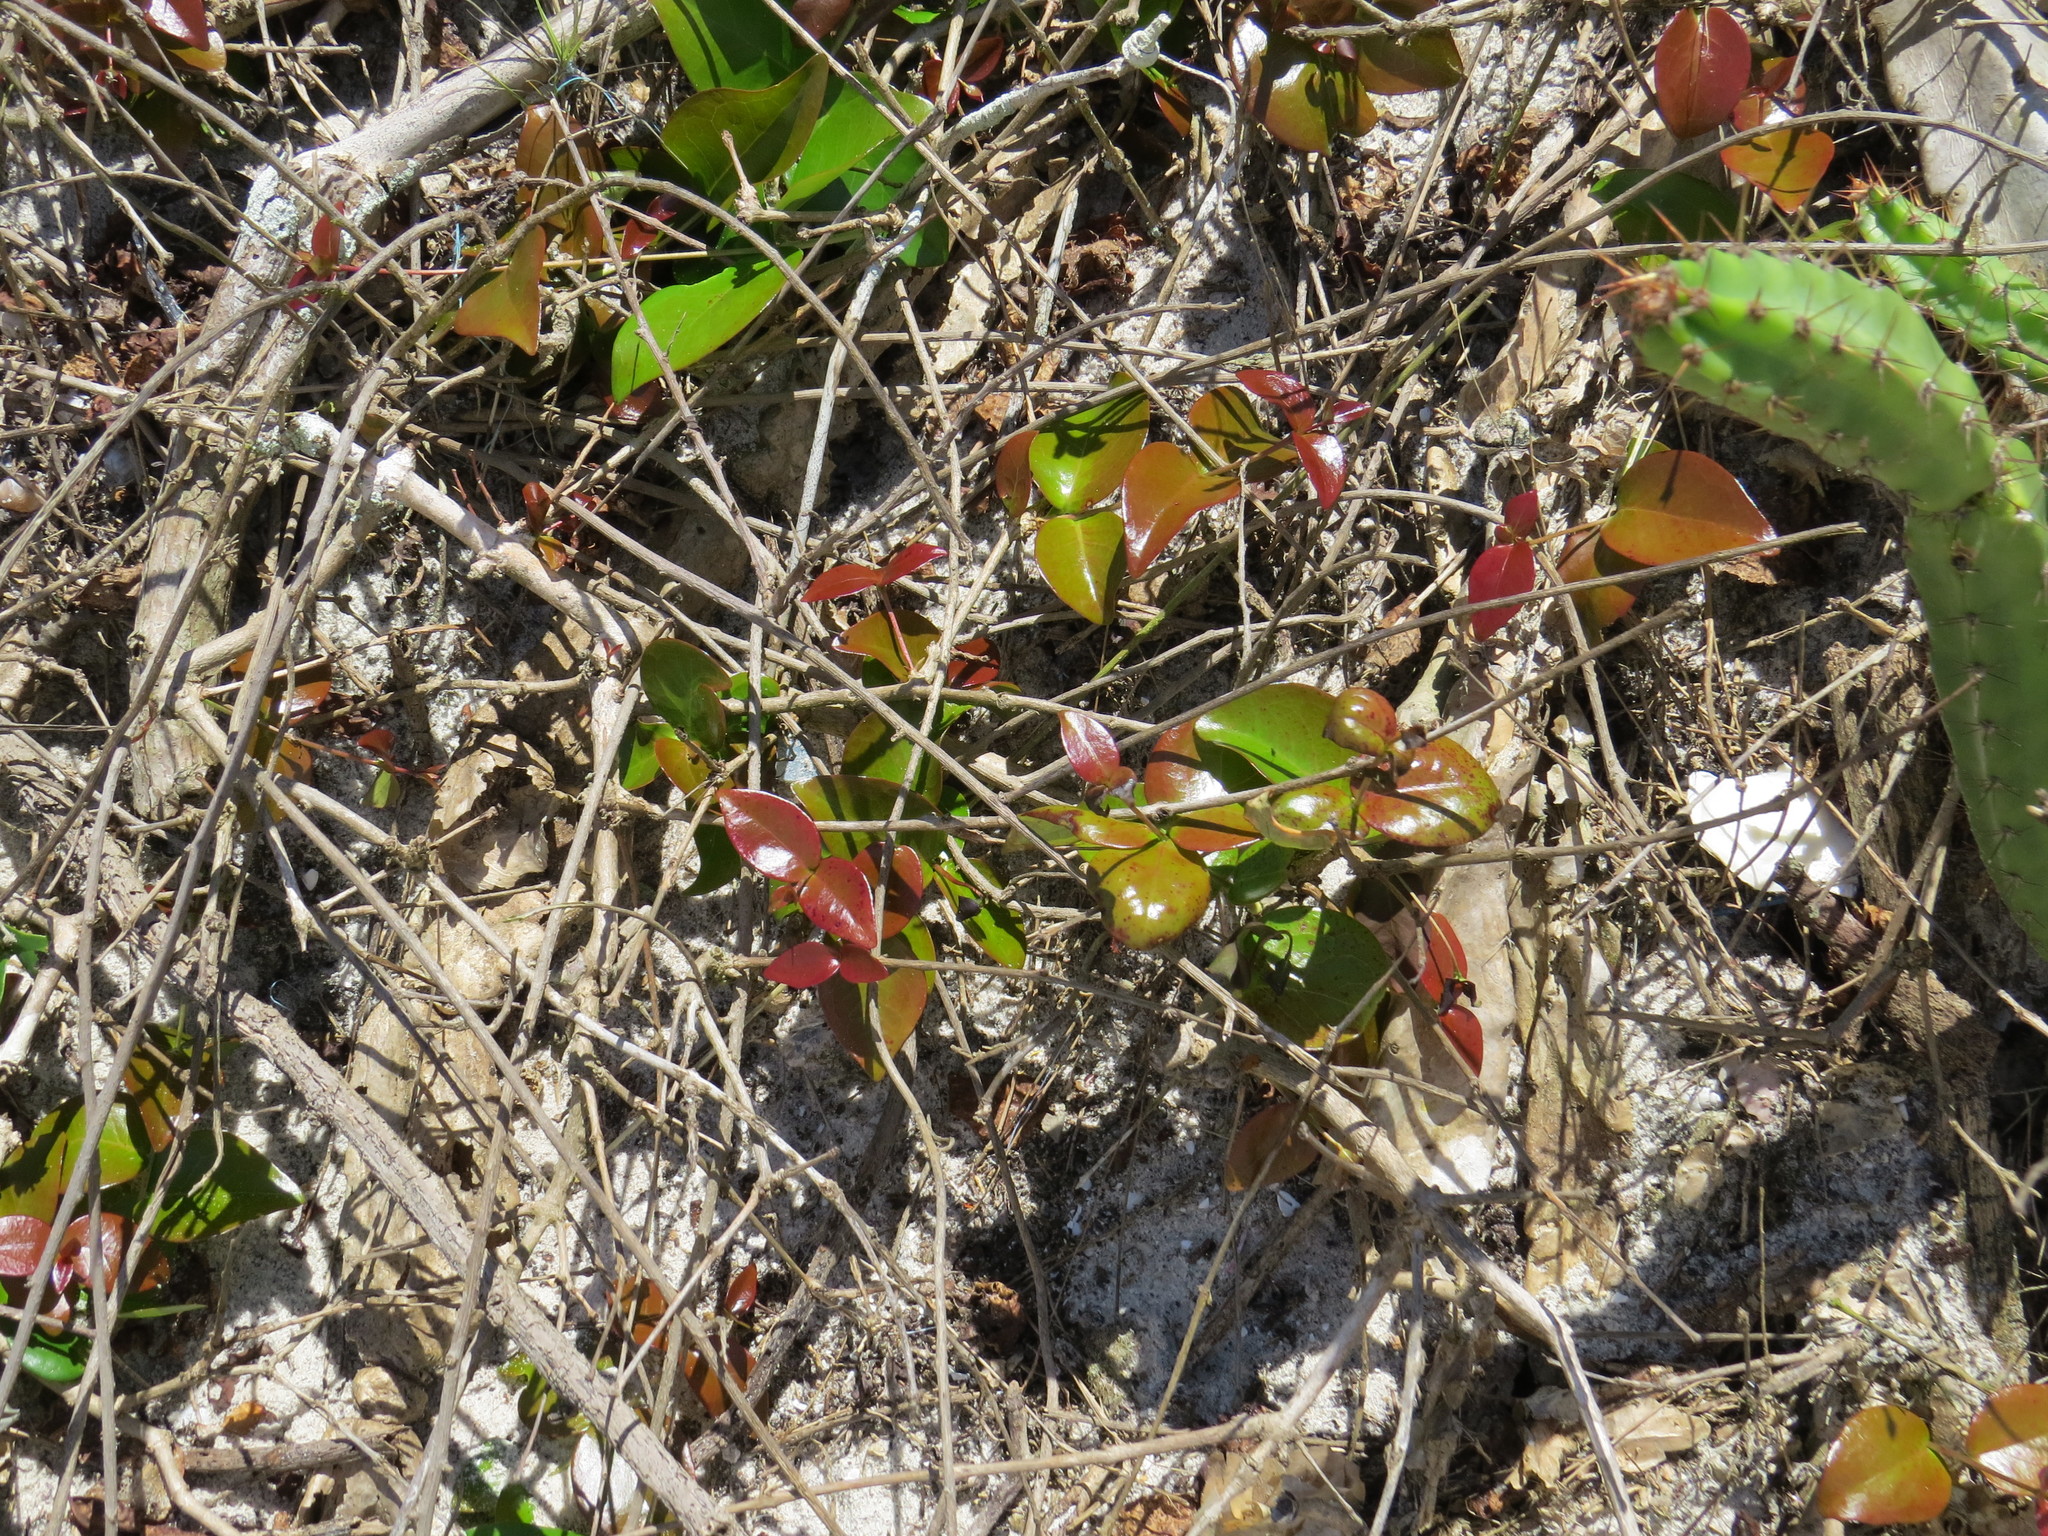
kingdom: Plantae
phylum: Tracheophyta
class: Magnoliopsida
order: Myrtales
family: Myrtaceae
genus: Eugenia
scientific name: Eugenia uniflora
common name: Surinam cherry
